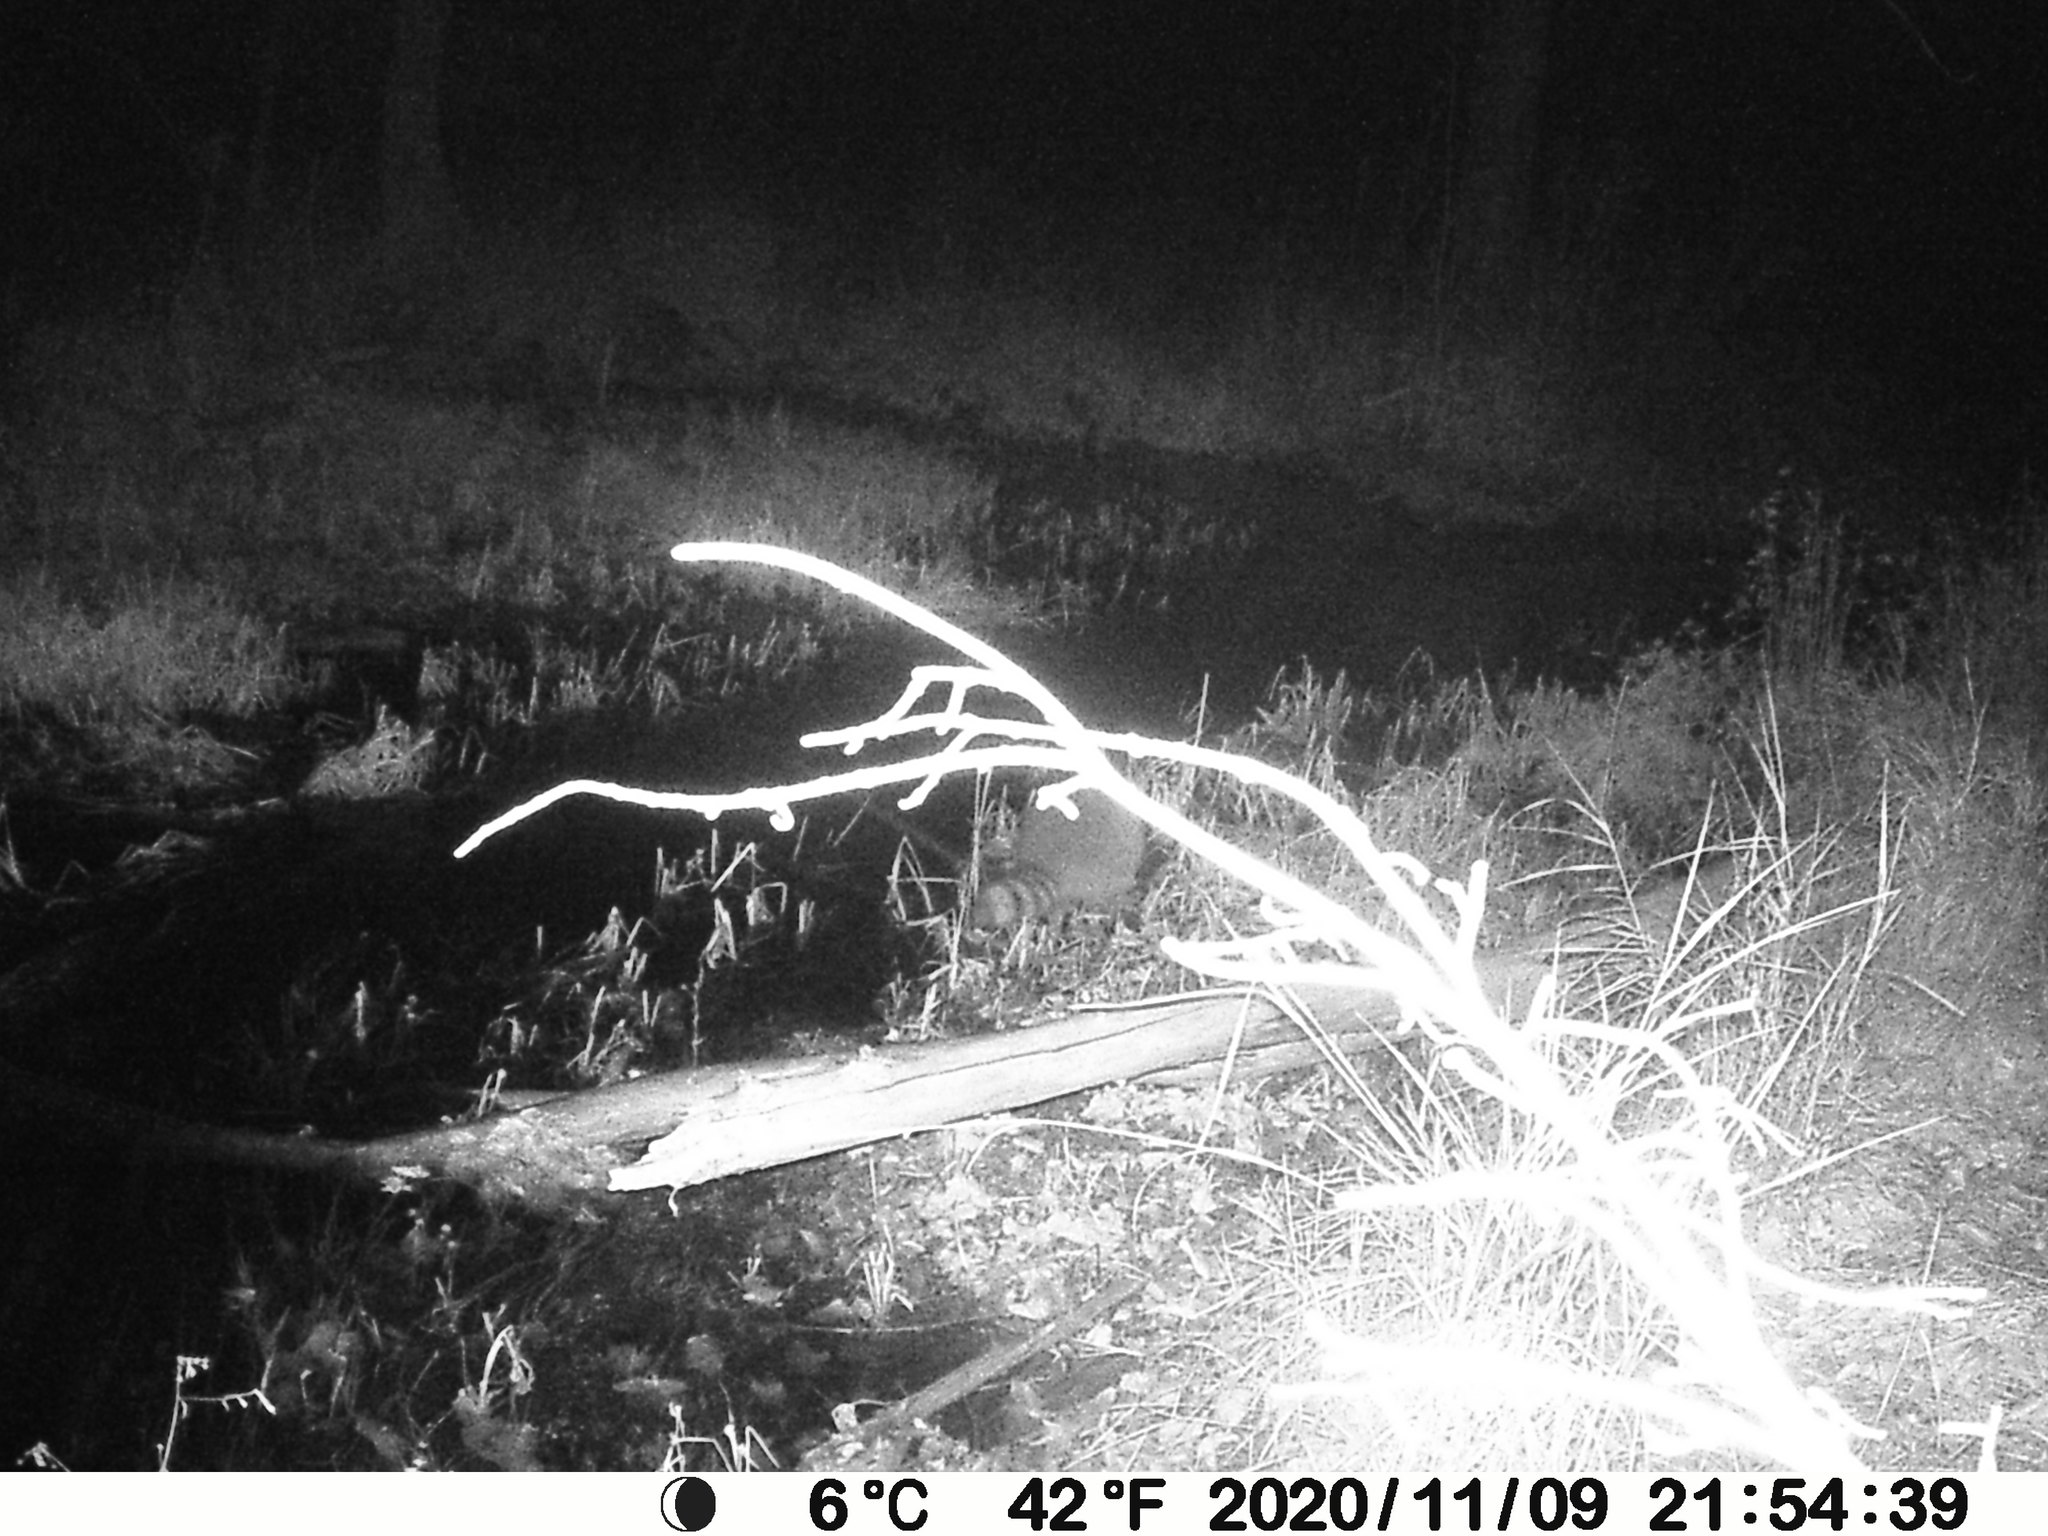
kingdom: Animalia
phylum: Chordata
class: Mammalia
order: Carnivora
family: Procyonidae
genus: Procyon
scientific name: Procyon lotor
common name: Raccoon
